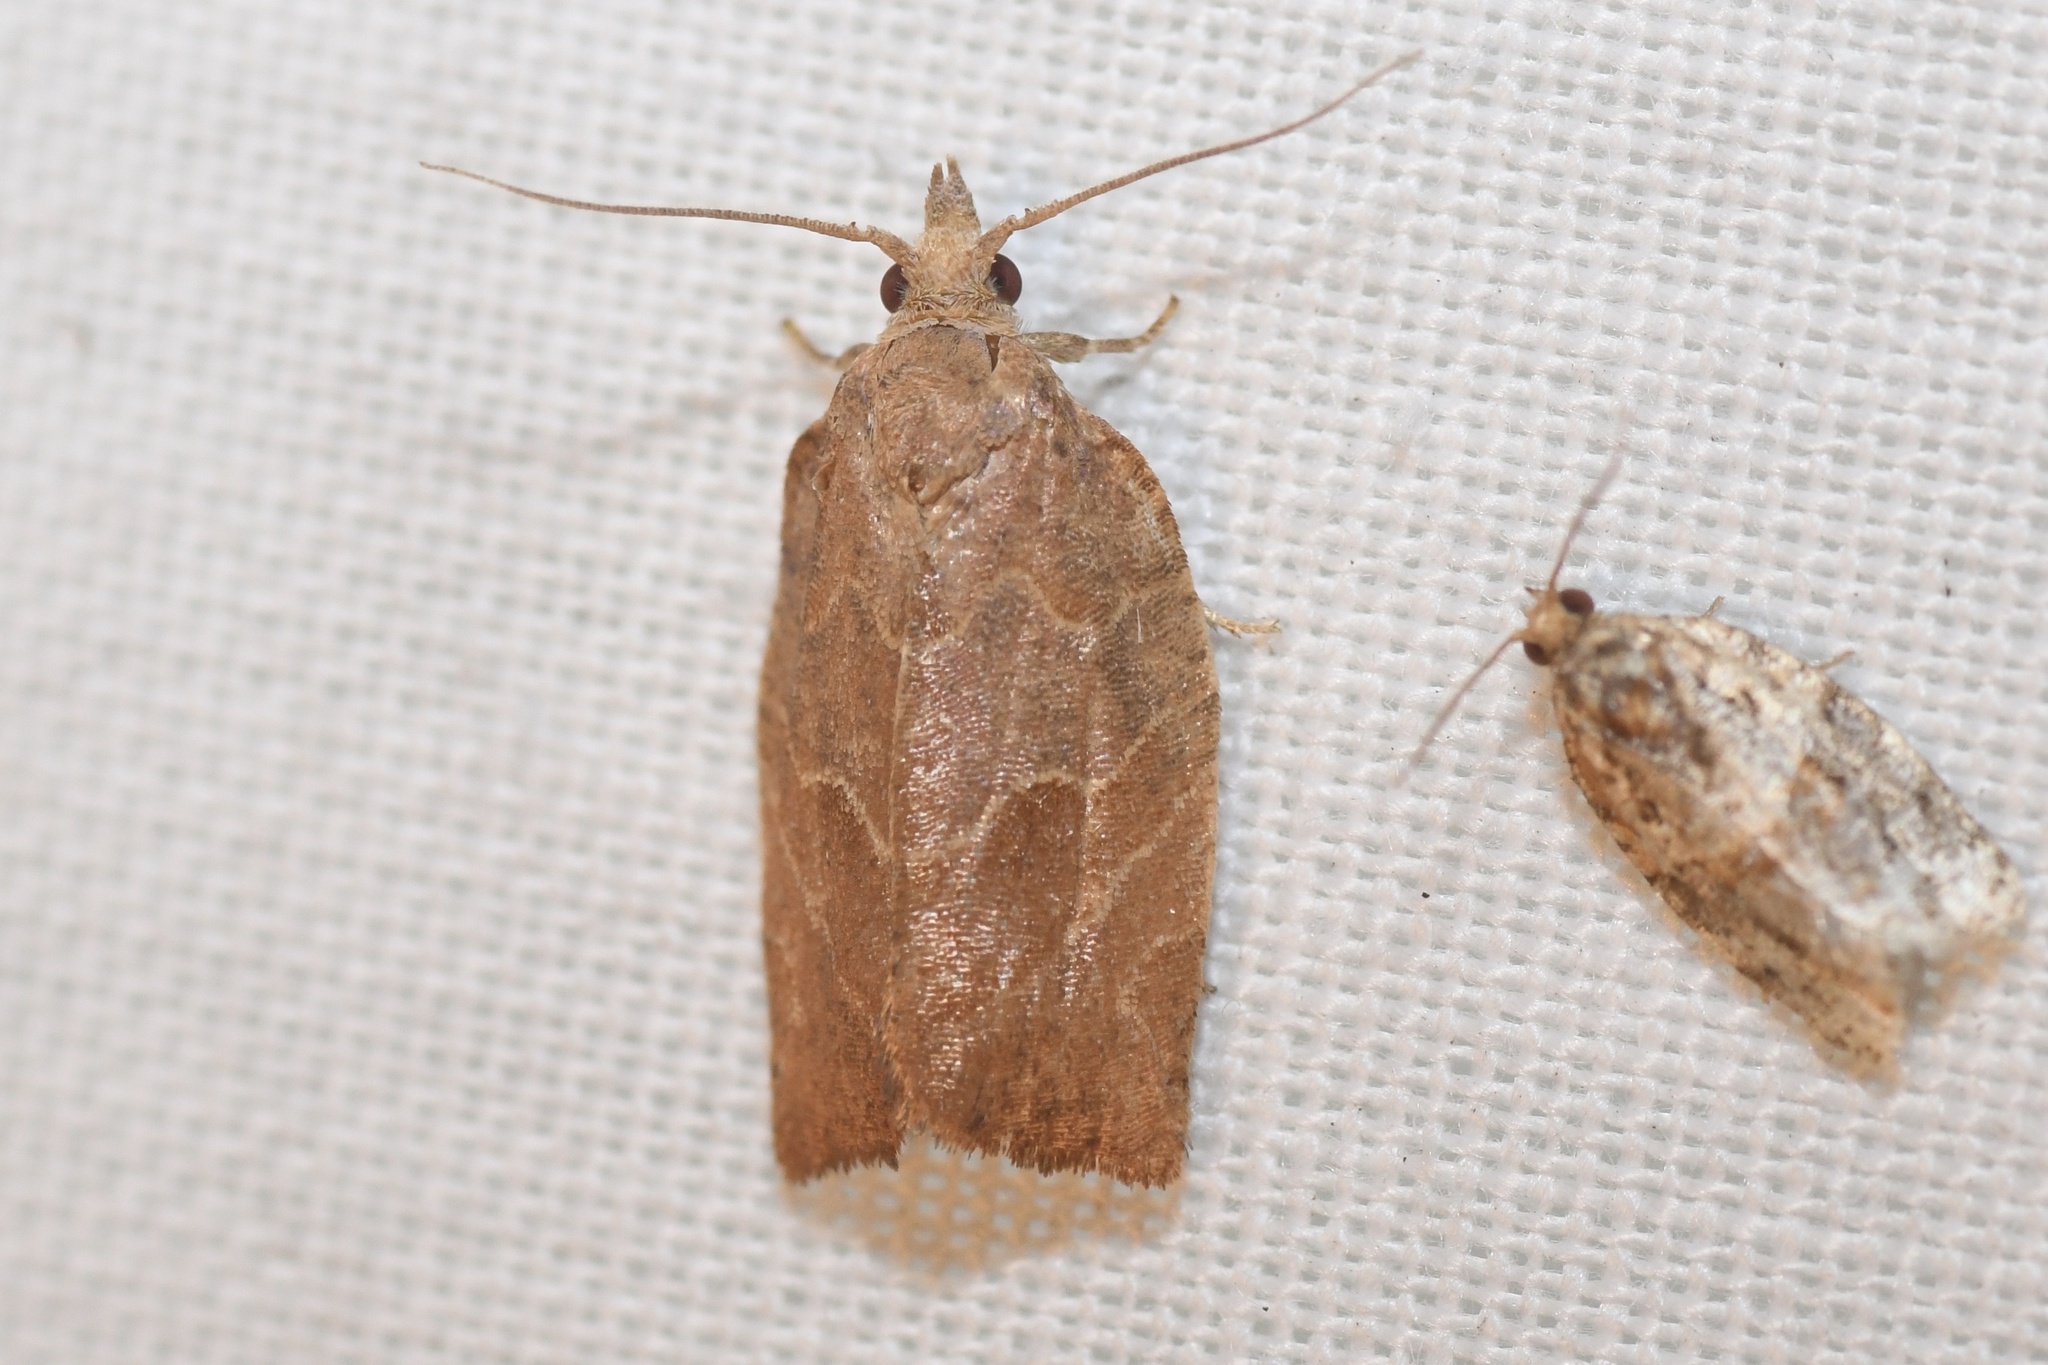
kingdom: Animalia
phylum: Arthropoda
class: Insecta
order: Lepidoptera
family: Tortricidae
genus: Pandemis
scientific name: Pandemis canadana
